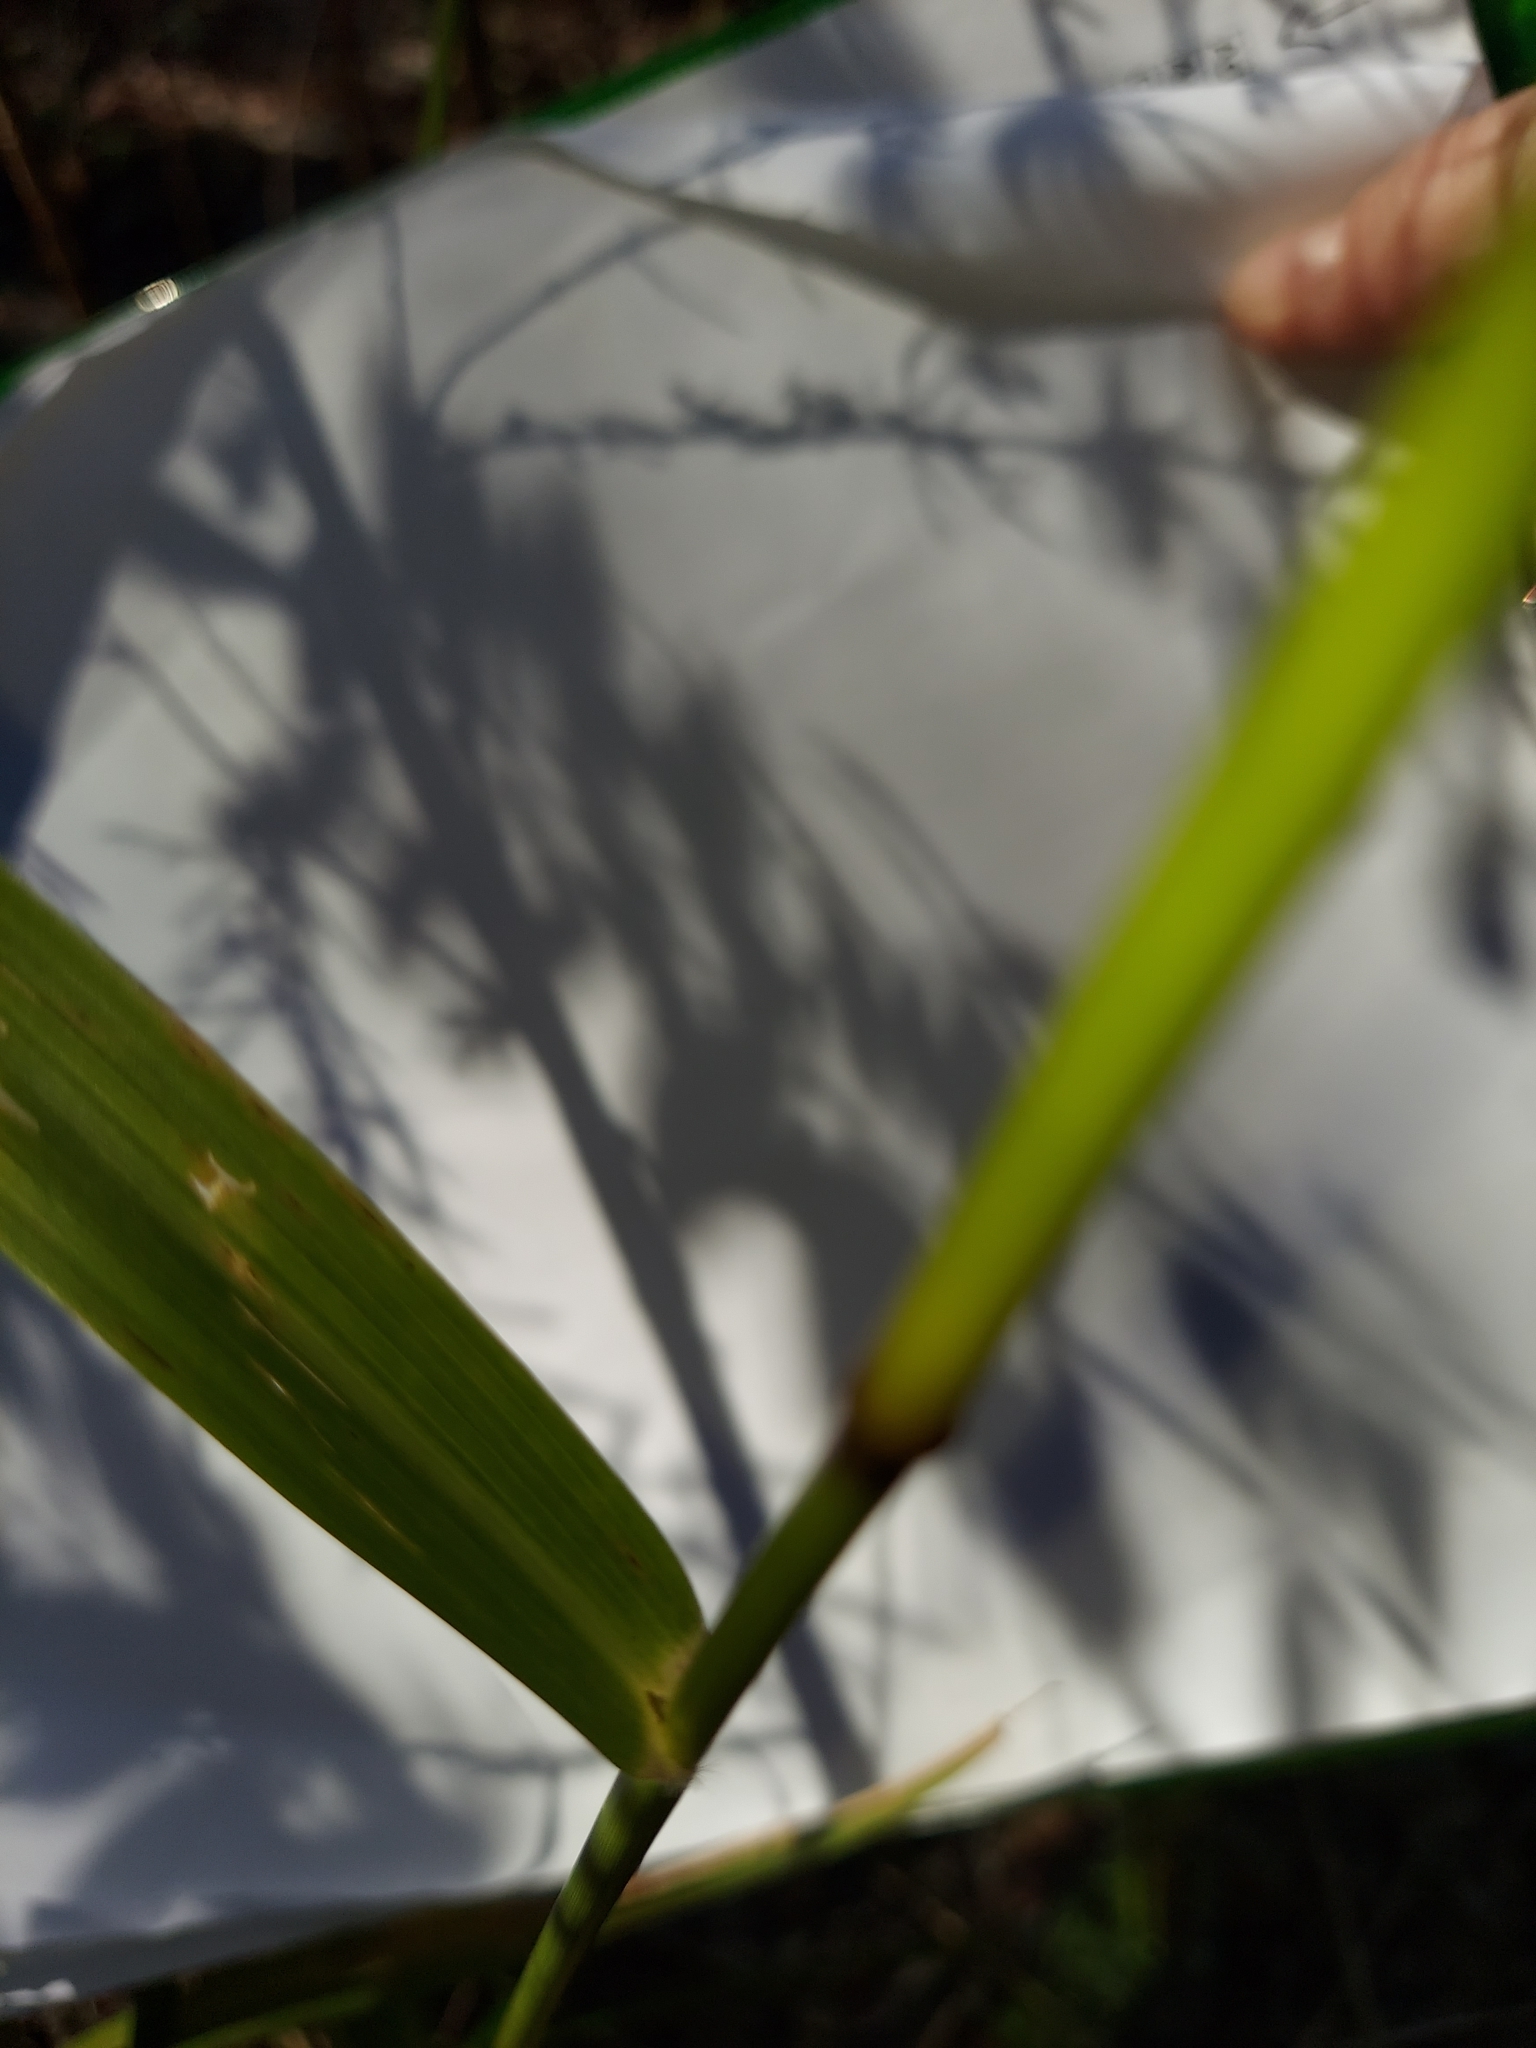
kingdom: Plantae
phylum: Tracheophyta
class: Liliopsida
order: Poales
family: Poaceae
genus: Tridens
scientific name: Tridens flavus
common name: Purpletop
